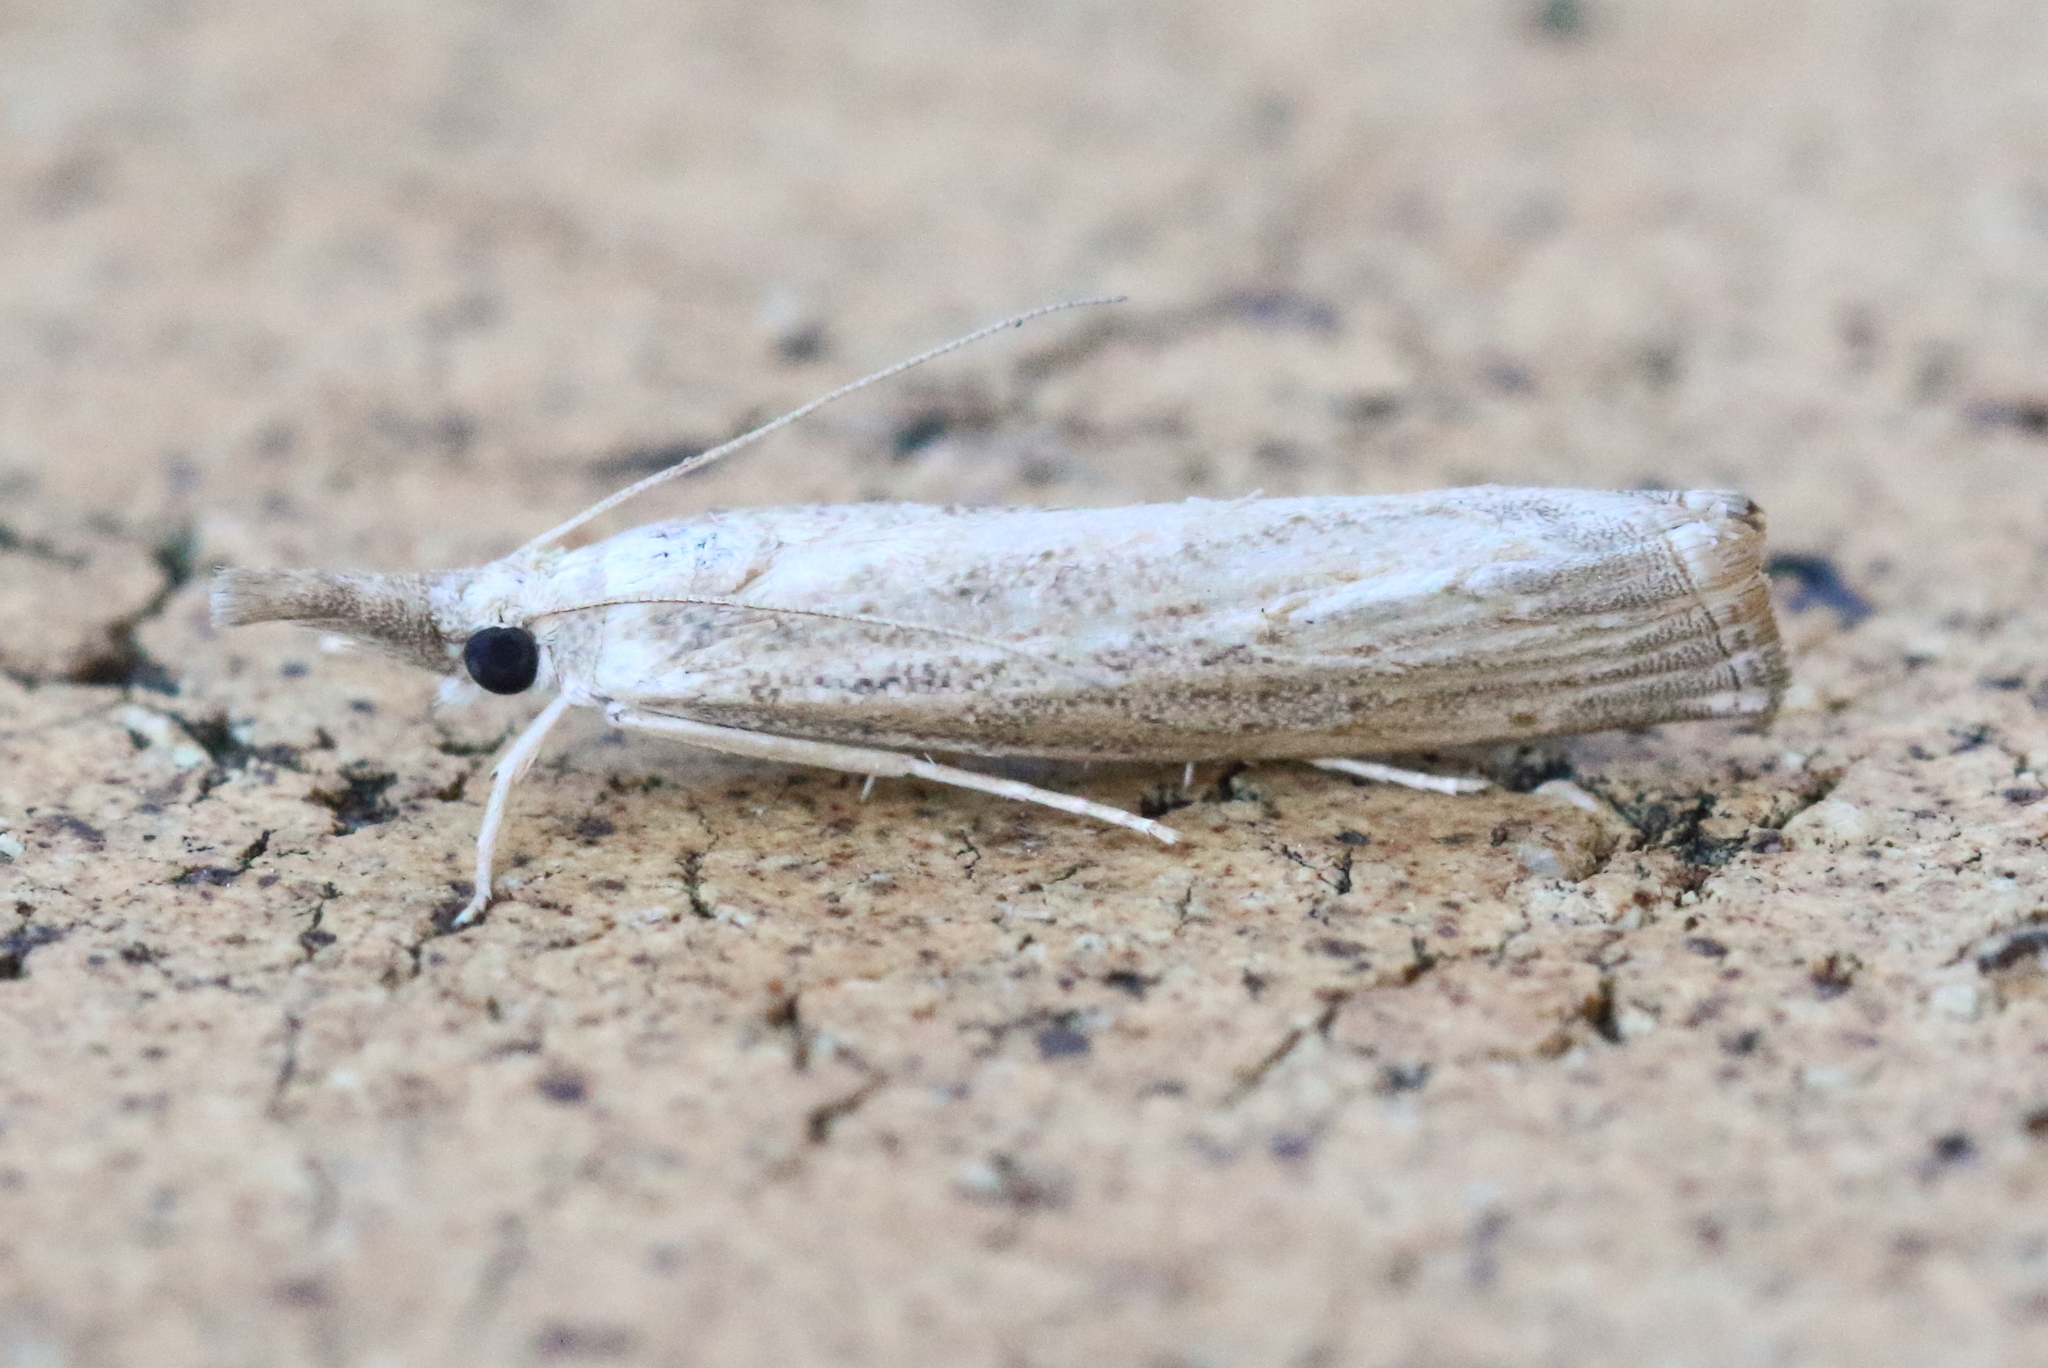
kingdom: Animalia
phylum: Arthropoda
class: Insecta
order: Lepidoptera
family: Crambidae
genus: Culladia
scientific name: Culladia cuneiferellus
